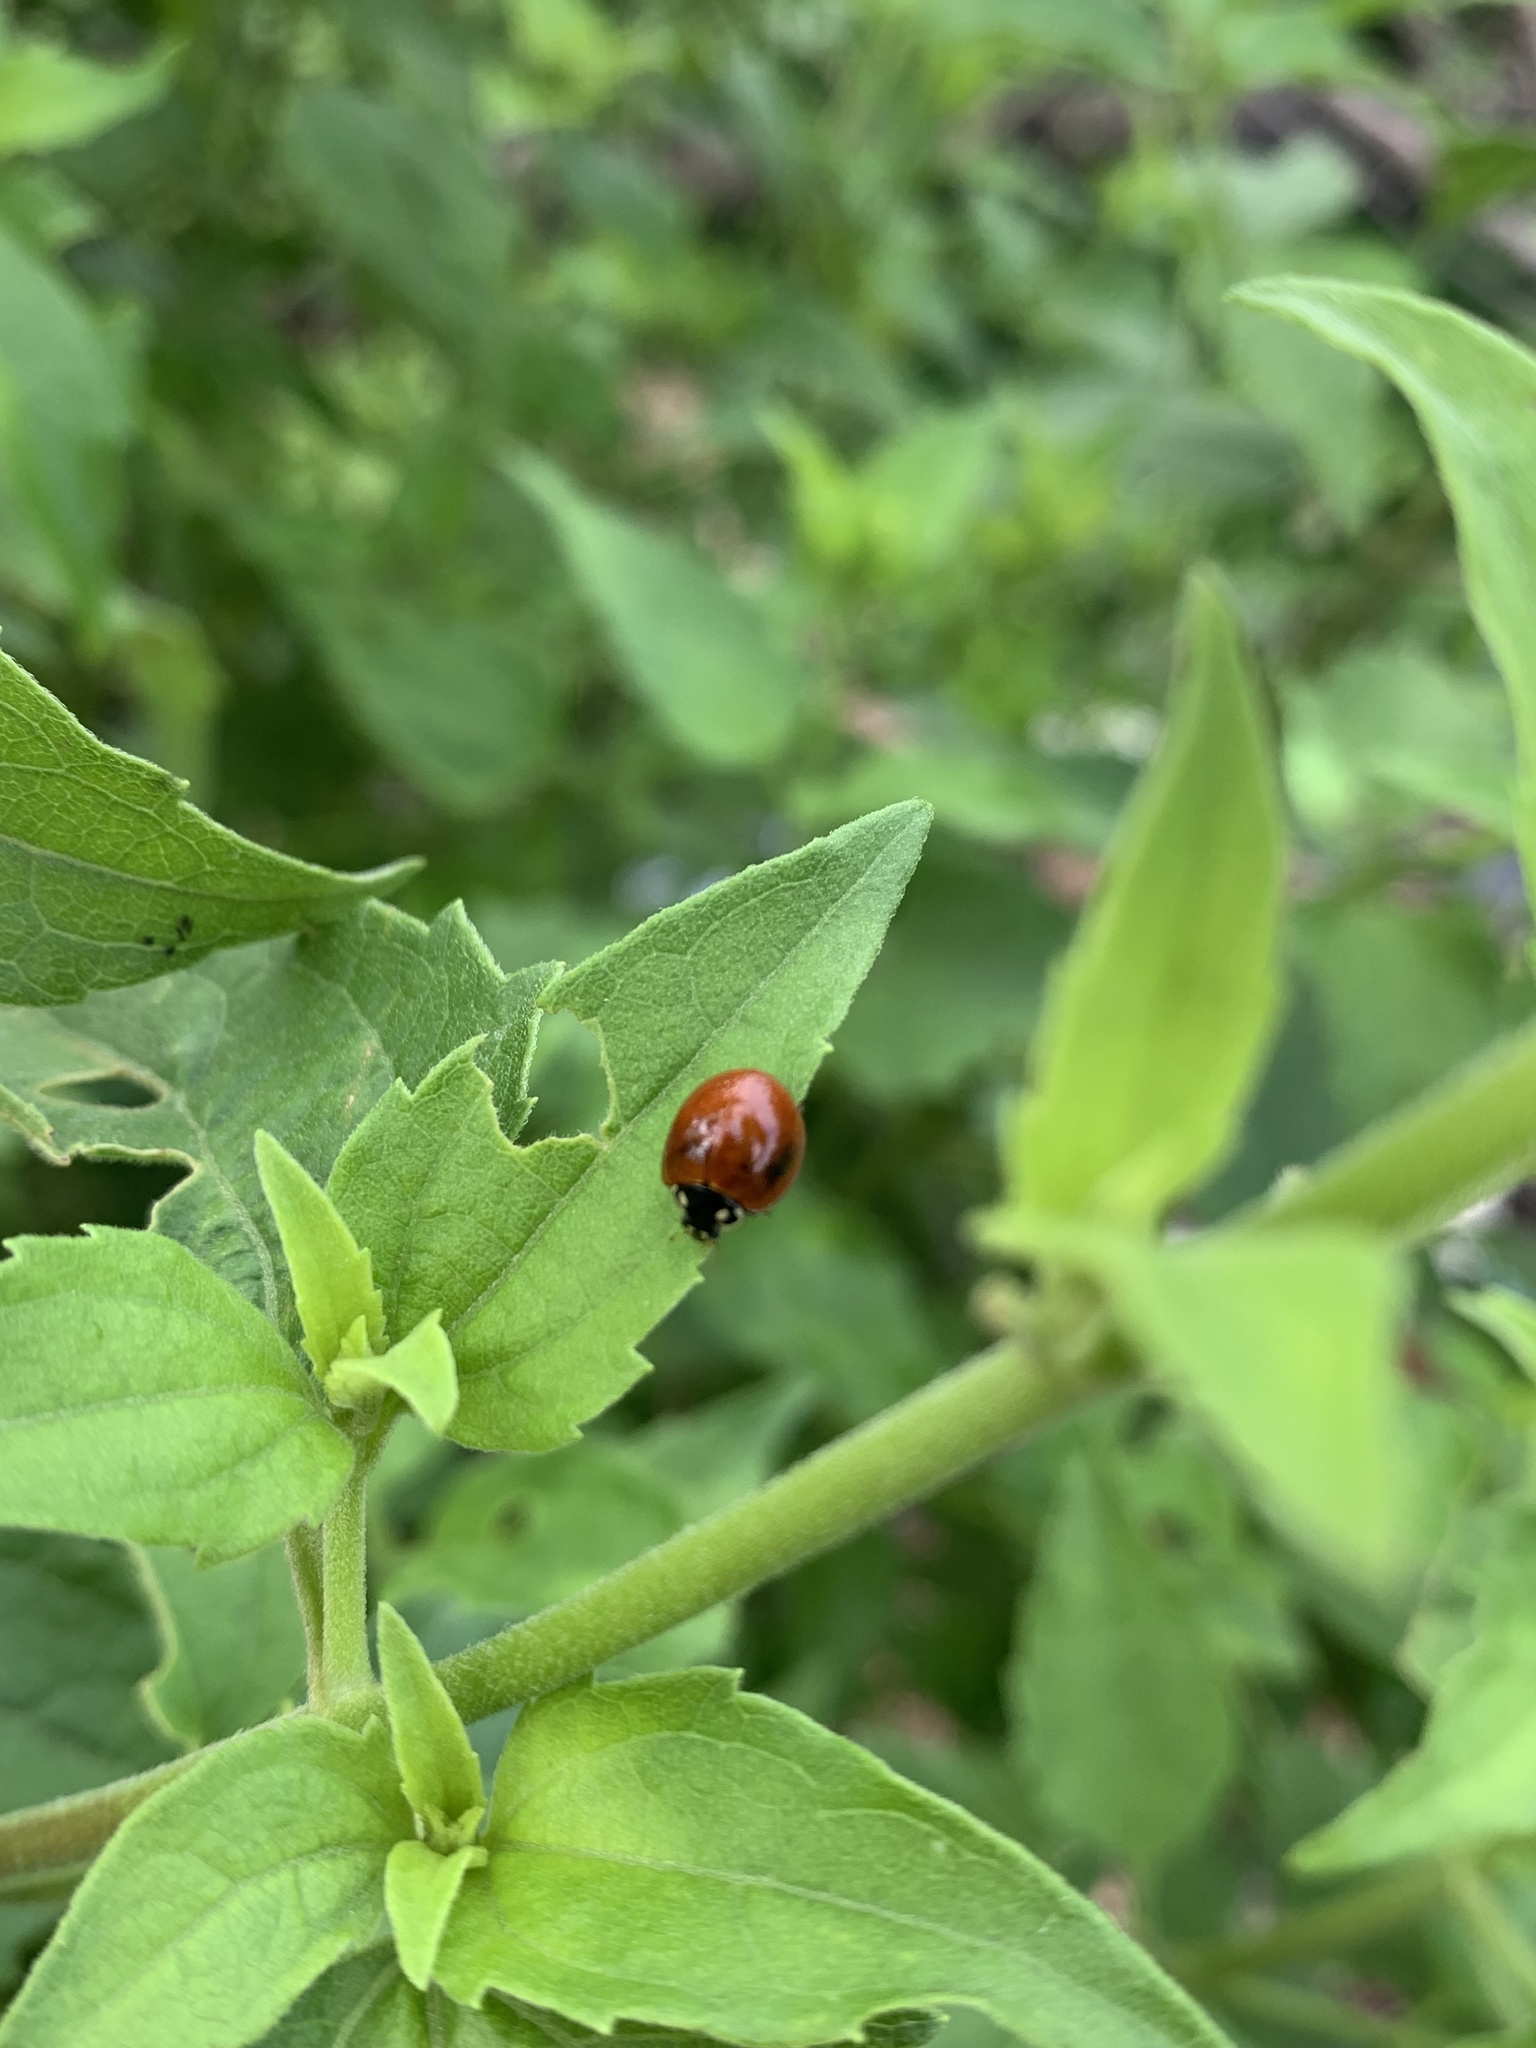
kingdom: Animalia
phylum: Arthropoda
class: Insecta
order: Coleoptera
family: Coccinellidae
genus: Cycloneda
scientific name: Cycloneda sanguinea
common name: Ladybird beetle
